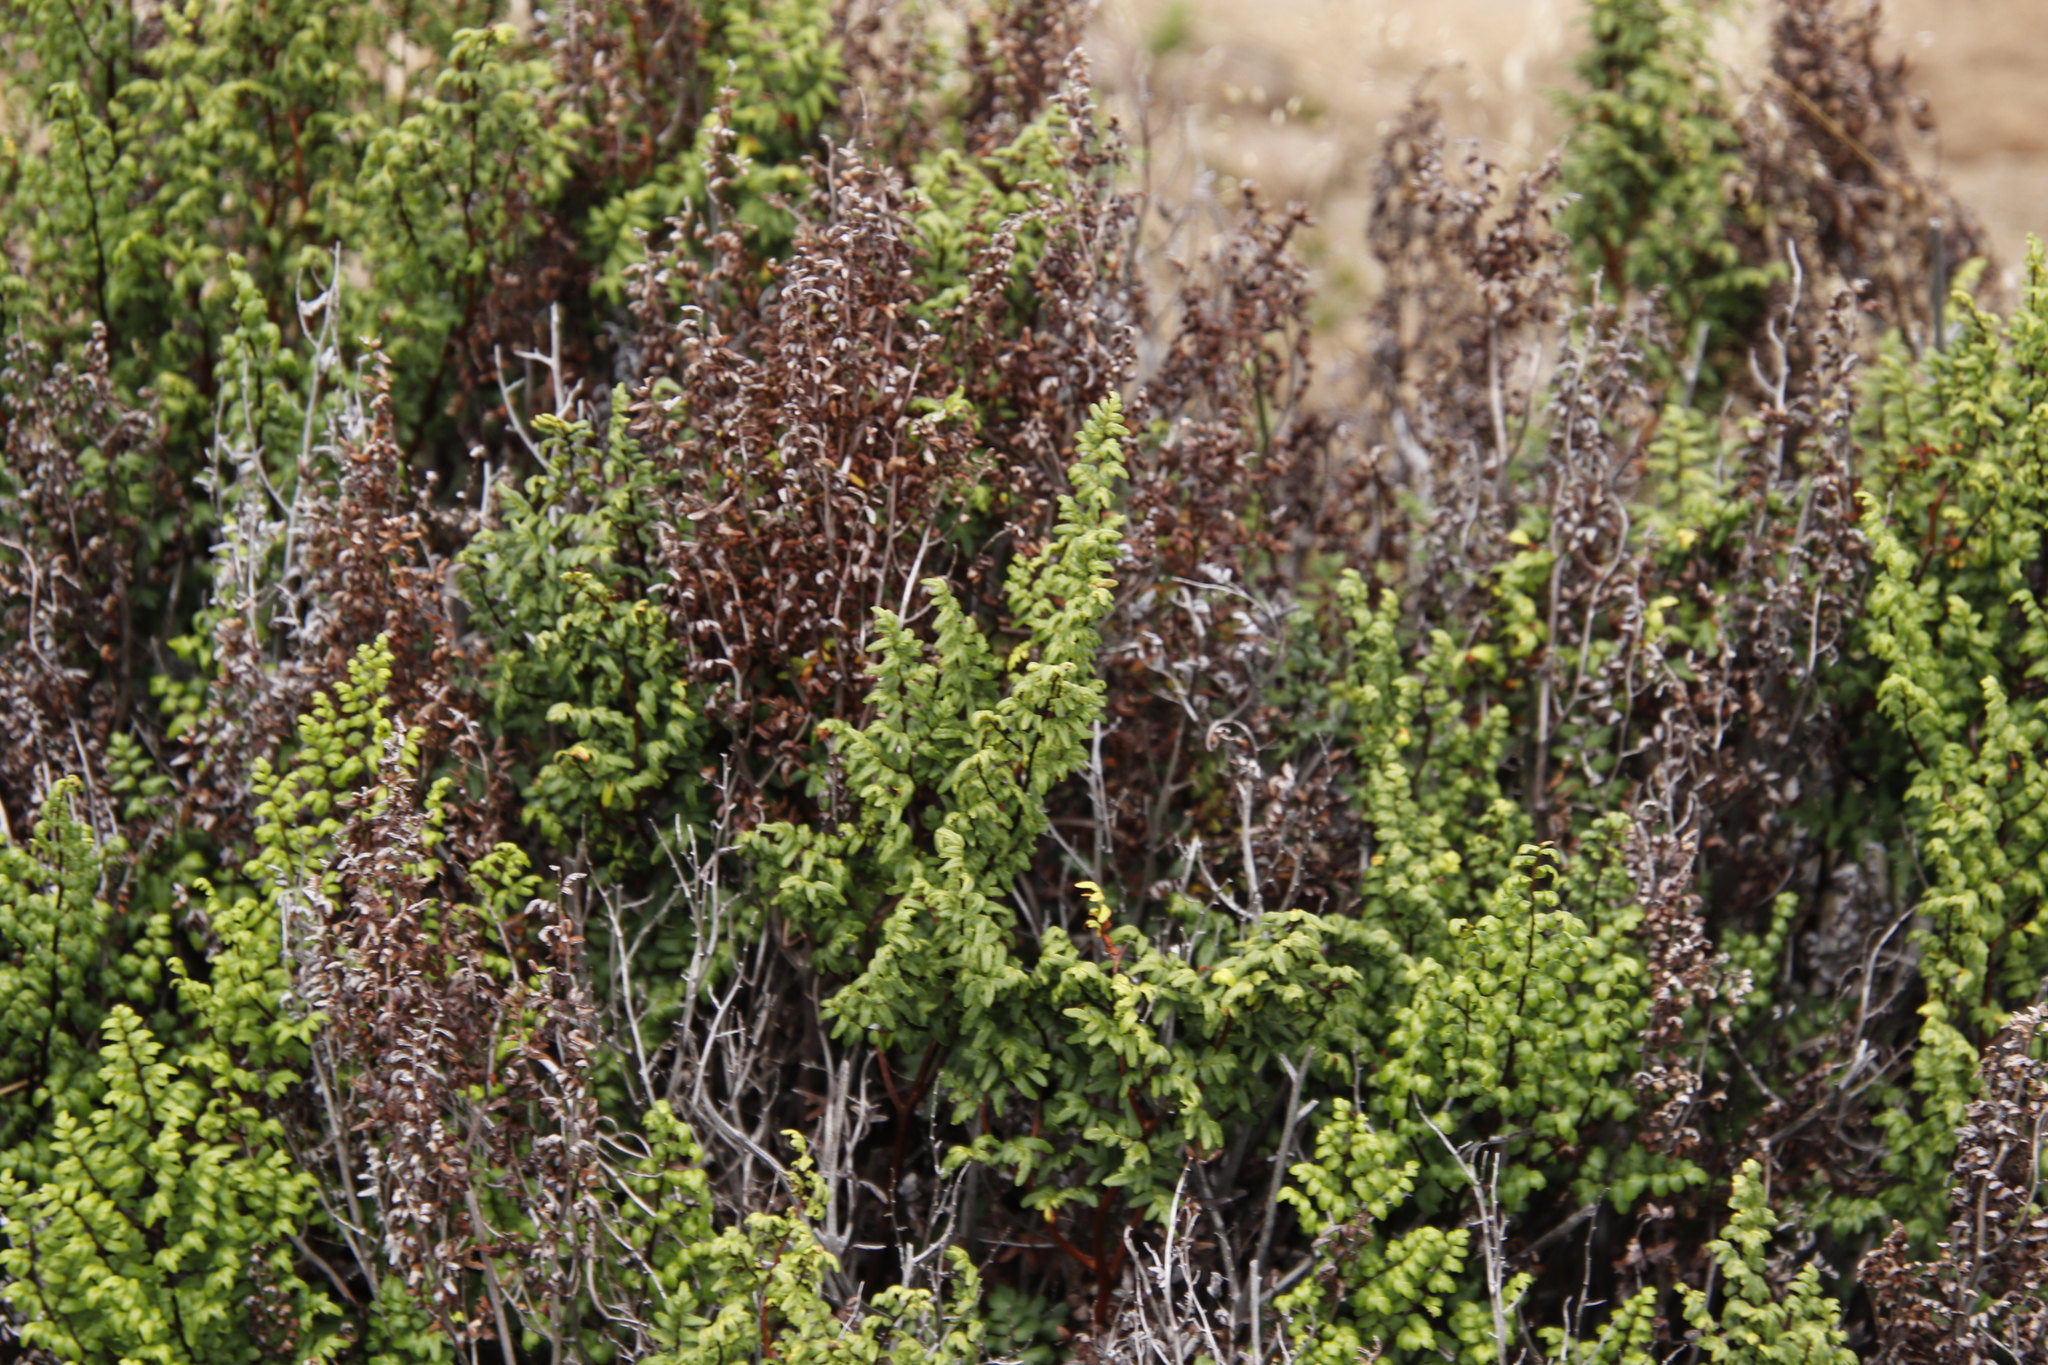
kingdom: Plantae
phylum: Tracheophyta
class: Polypodiopsida
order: Polypodiales
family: Pteridaceae
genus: Cheilanthes
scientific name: Cheilanthes quadripinnata
